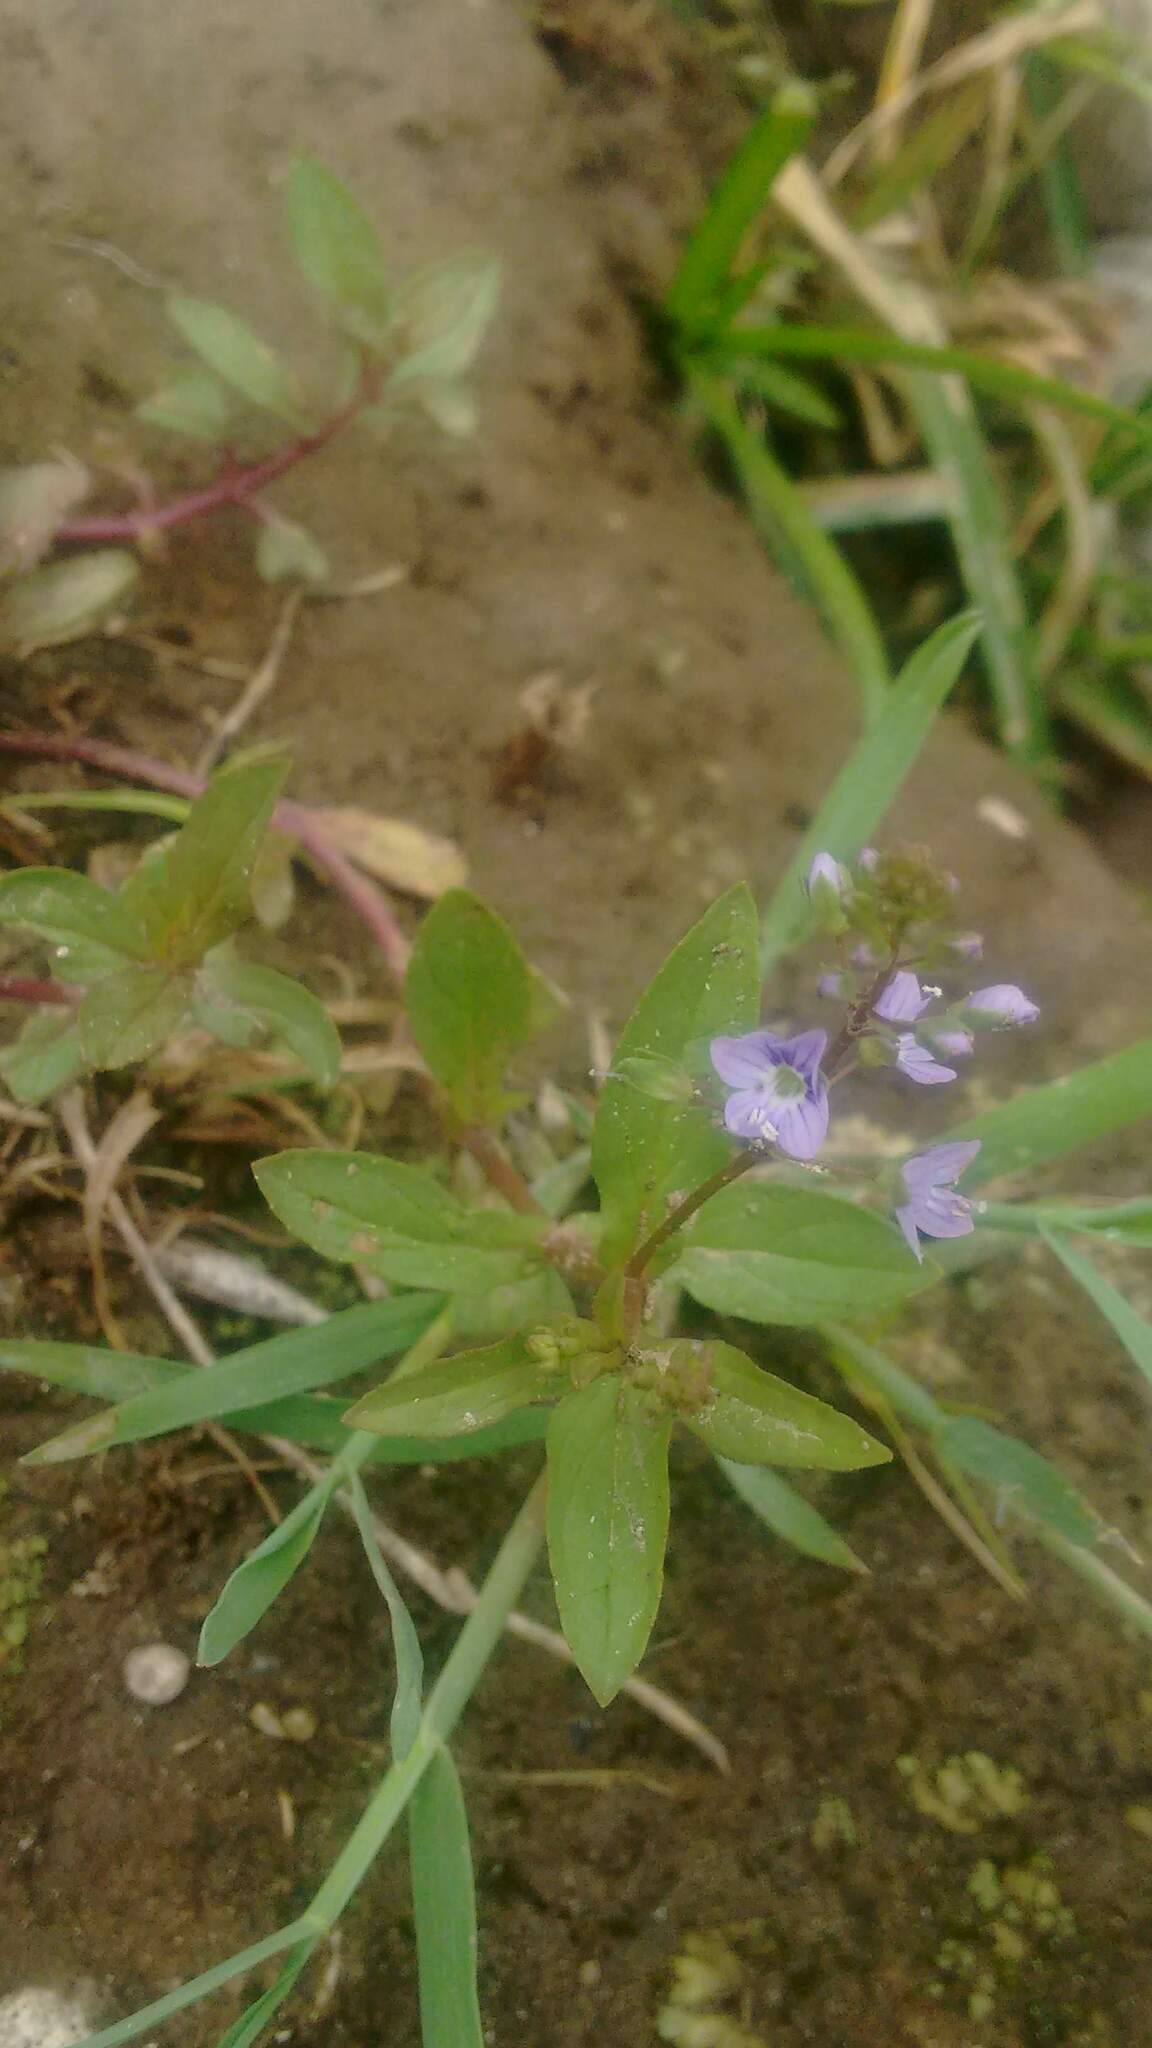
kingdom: Plantae
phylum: Tracheophyta
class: Magnoliopsida
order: Lamiales
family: Plantaginaceae
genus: Veronica
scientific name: Veronica anagallis-aquatica
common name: Water speedwell
